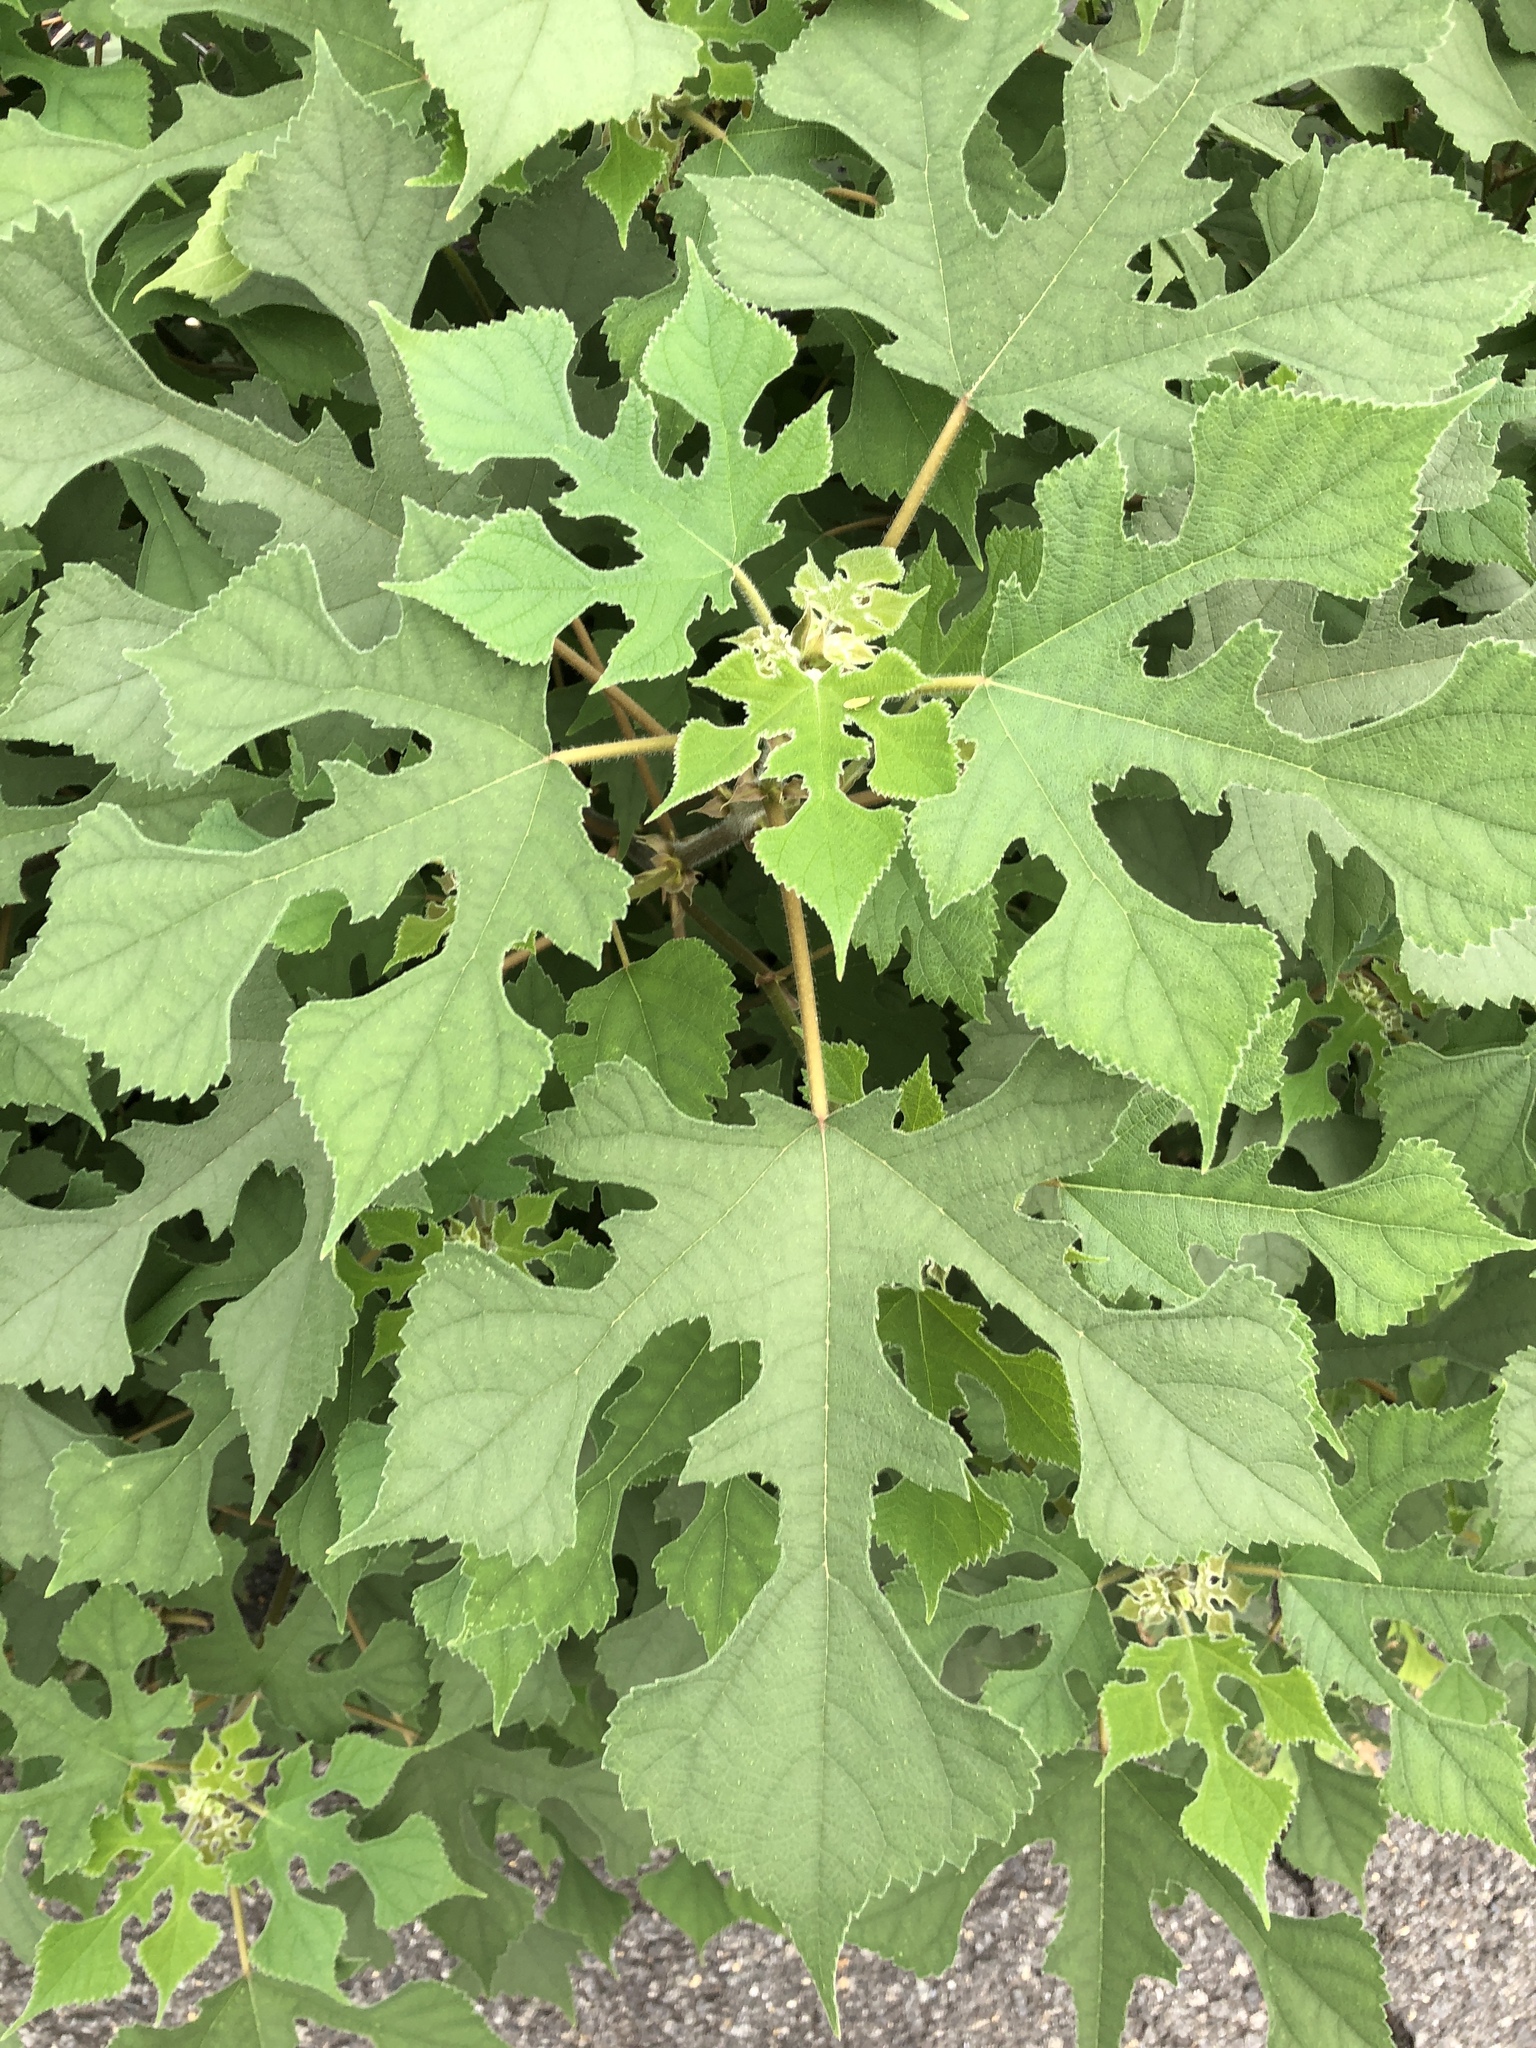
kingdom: Plantae
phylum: Tracheophyta
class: Magnoliopsida
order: Rosales
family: Moraceae
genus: Broussonetia
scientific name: Broussonetia papyrifera
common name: Paper mulberry
